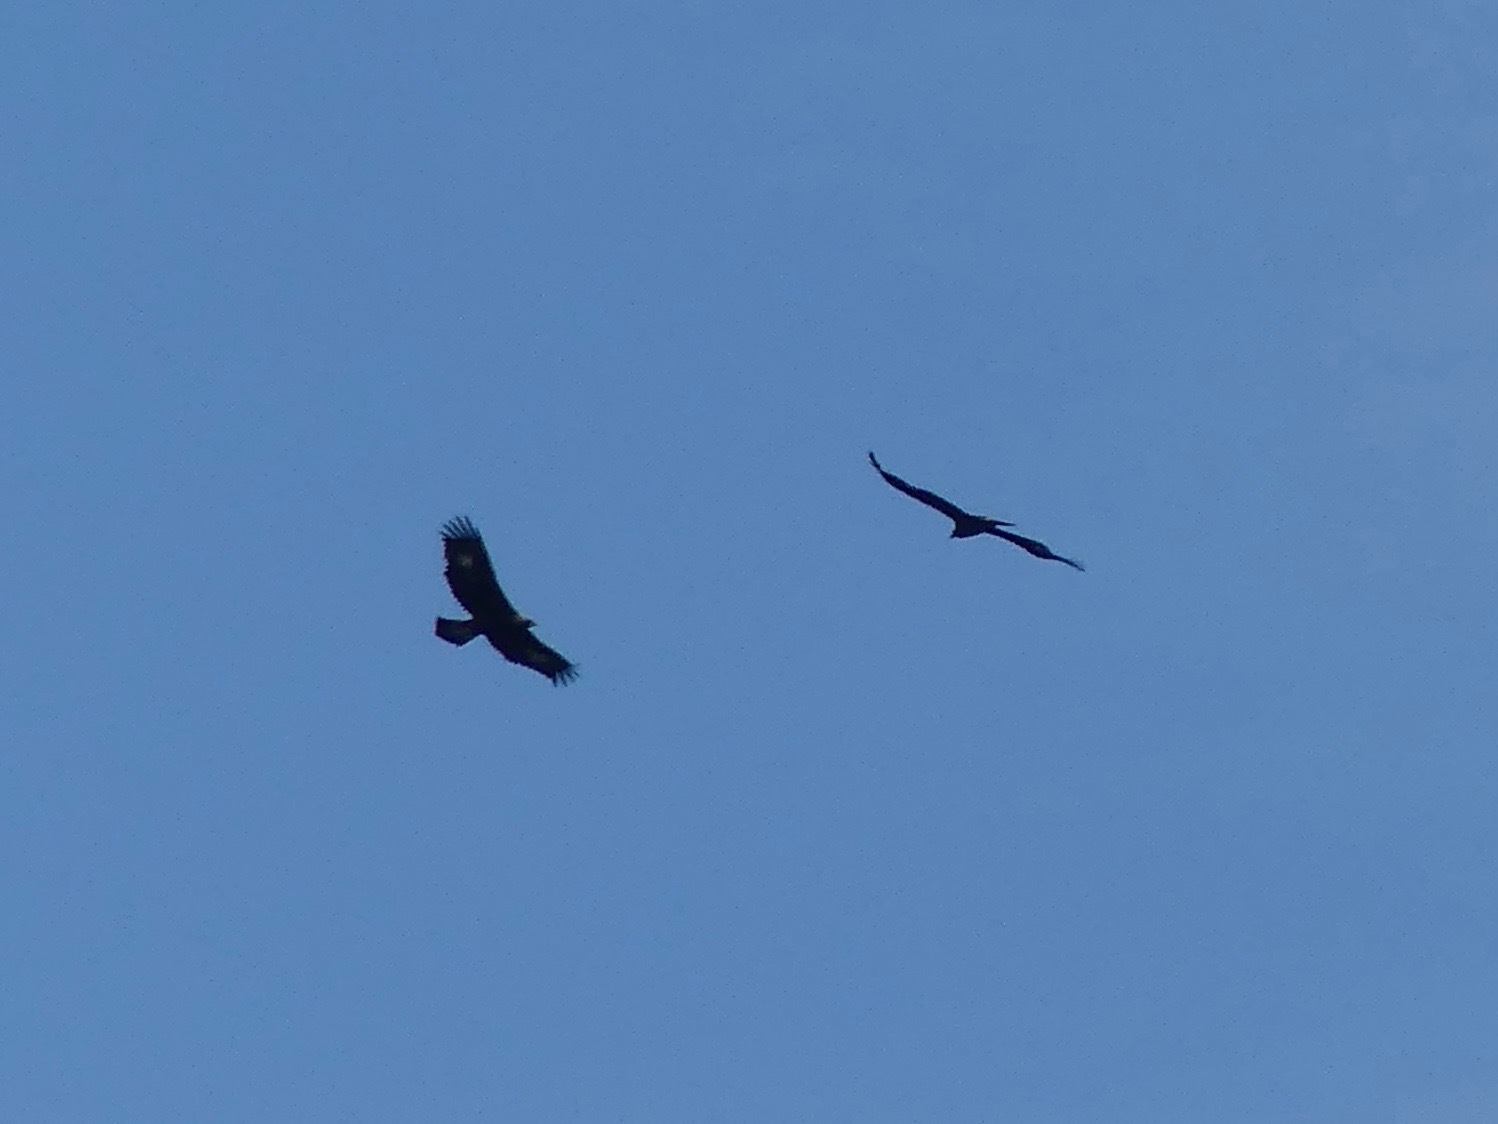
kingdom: Animalia
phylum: Chordata
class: Aves
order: Accipitriformes
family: Accipitridae
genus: Aquila
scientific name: Aquila chrysaetos
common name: Golden eagle
